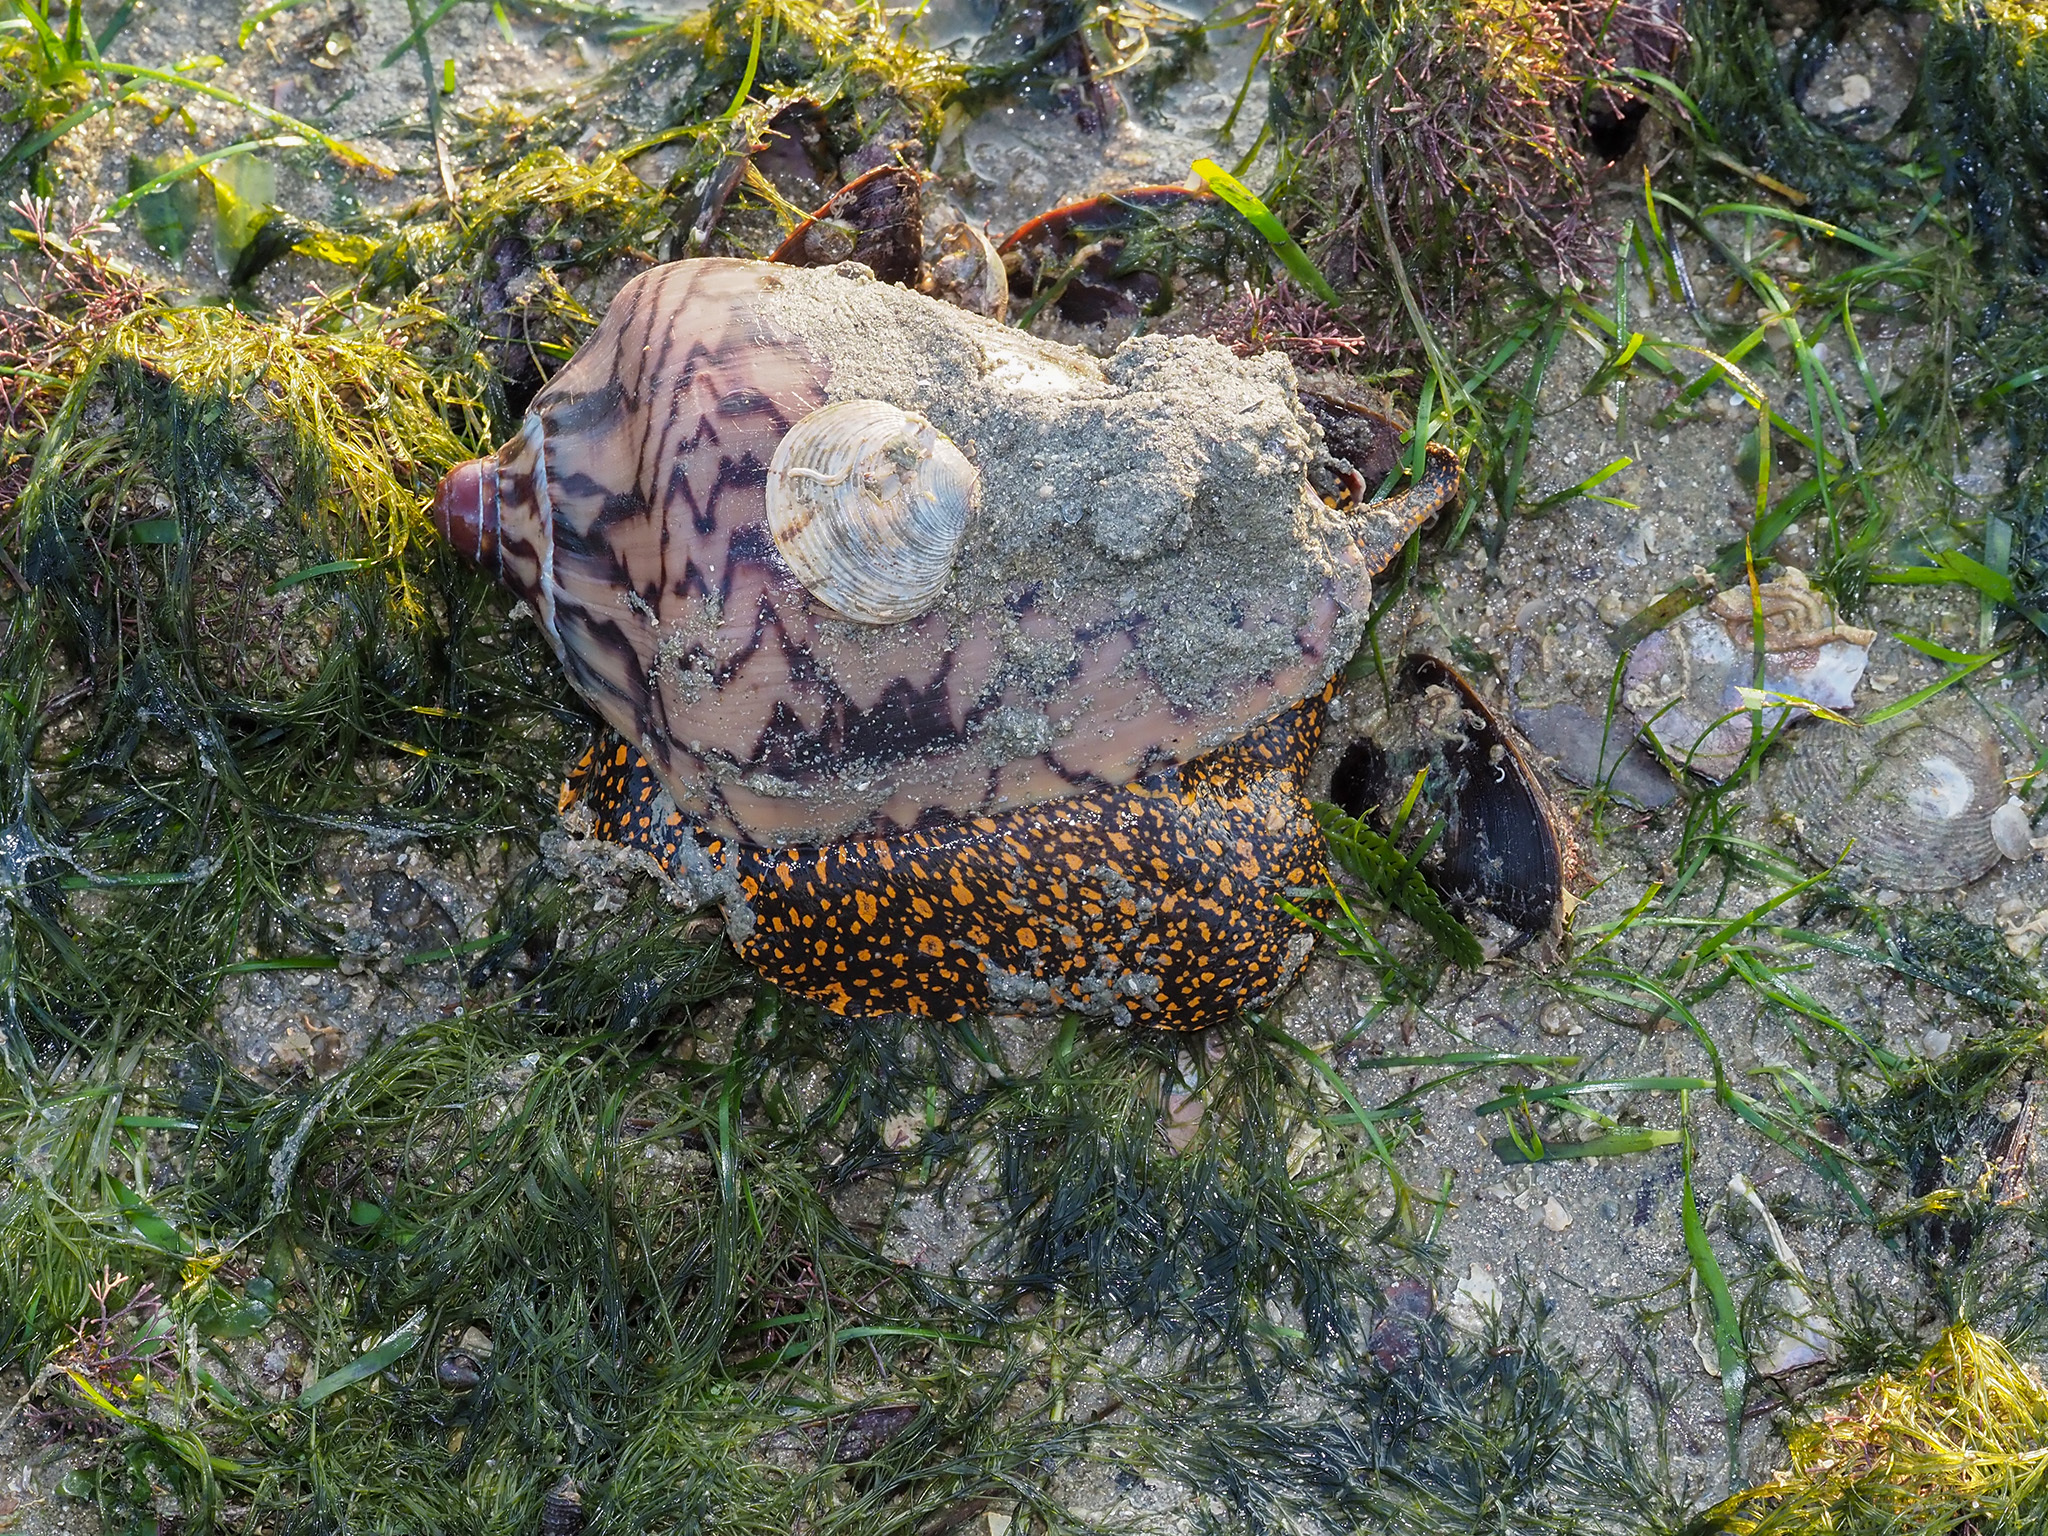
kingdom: Animalia
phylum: Mollusca
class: Gastropoda
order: Neogastropoda
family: Volutidae
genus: Cymbiola
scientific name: Cymbiola nobilis
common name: Noble volute
